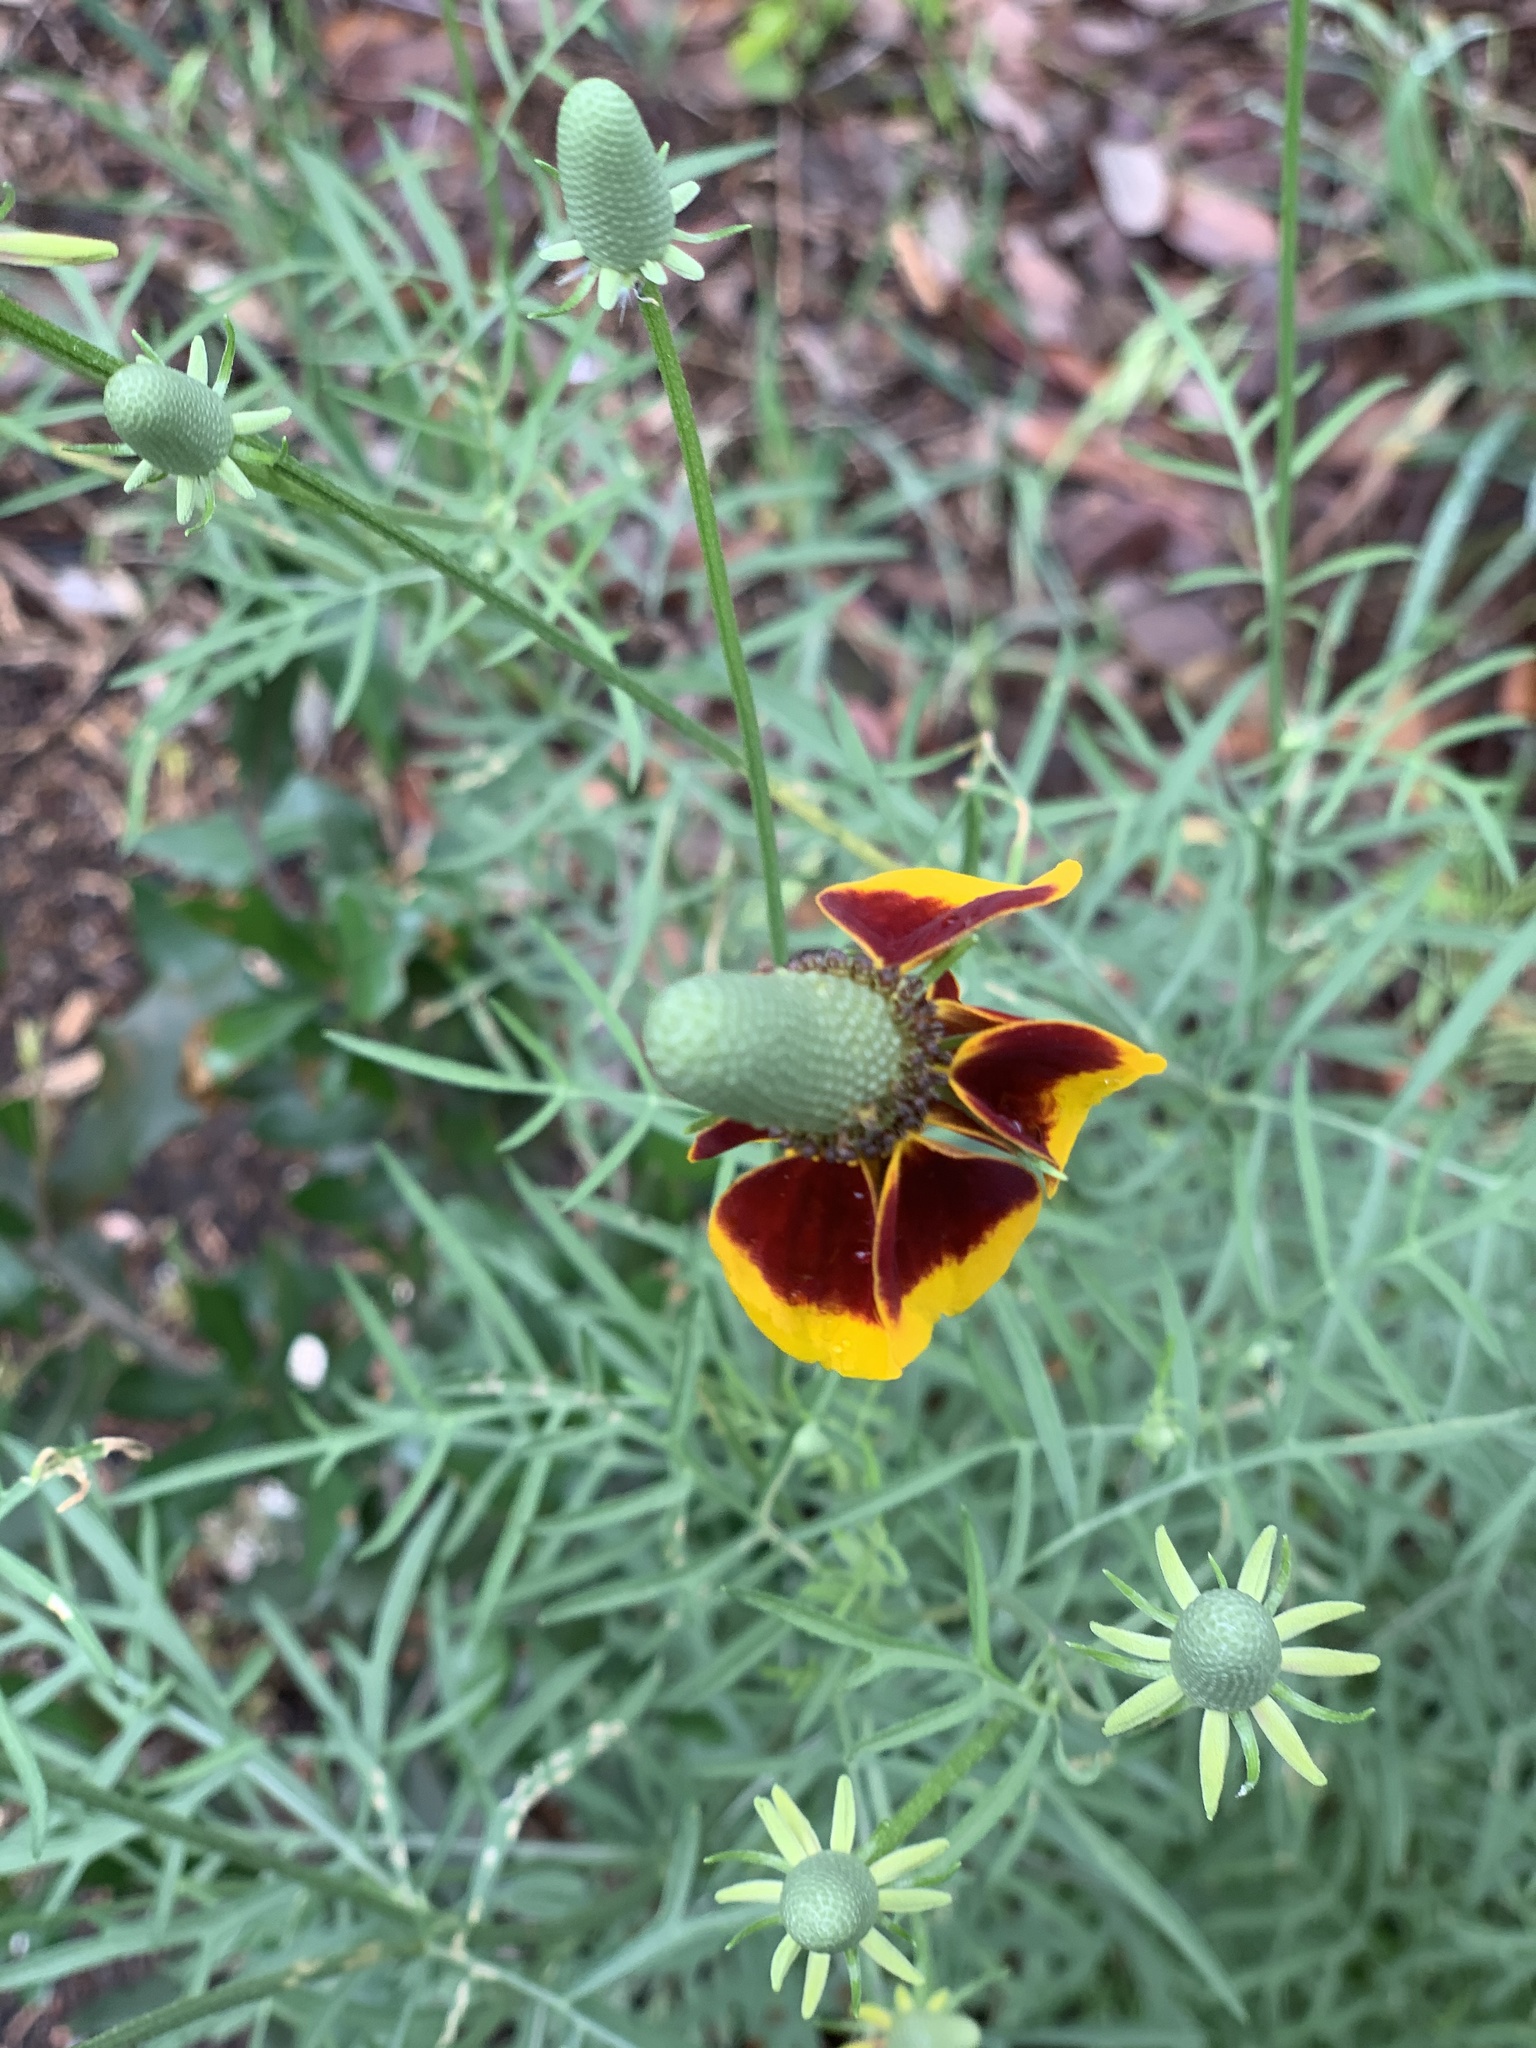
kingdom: Plantae
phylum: Tracheophyta
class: Magnoliopsida
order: Asterales
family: Asteraceae
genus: Ratibida
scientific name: Ratibida columnifera
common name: Prairie coneflower
